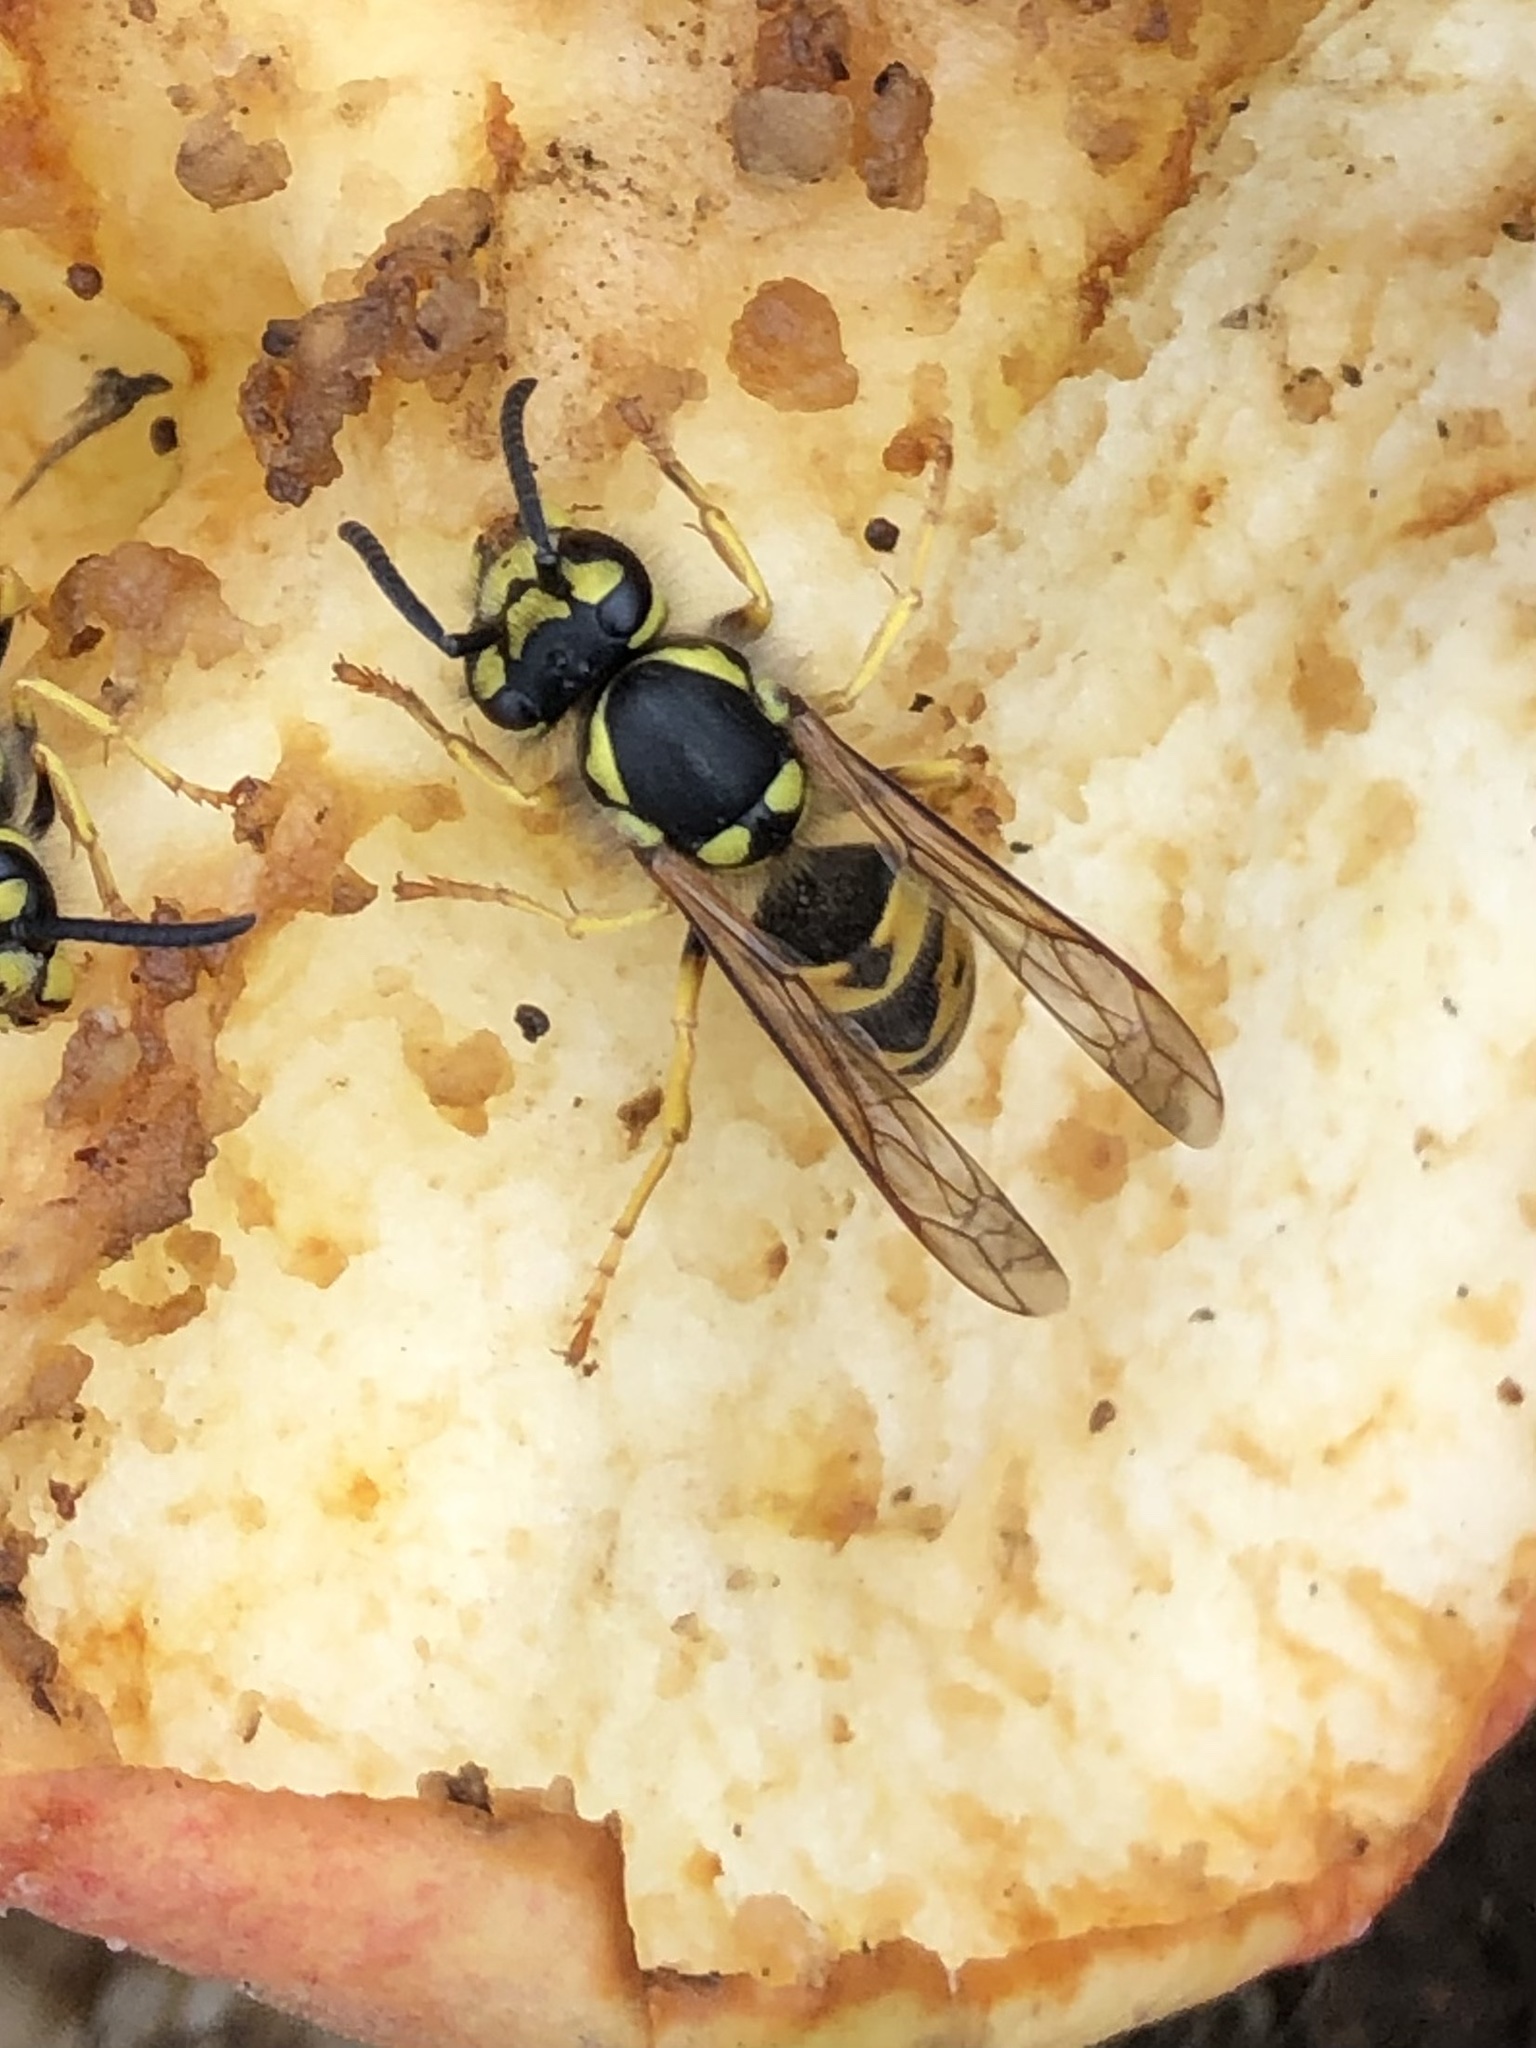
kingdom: Animalia
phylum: Arthropoda
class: Insecta
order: Hymenoptera
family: Vespidae
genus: Vespula
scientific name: Vespula germanica
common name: German wasp
